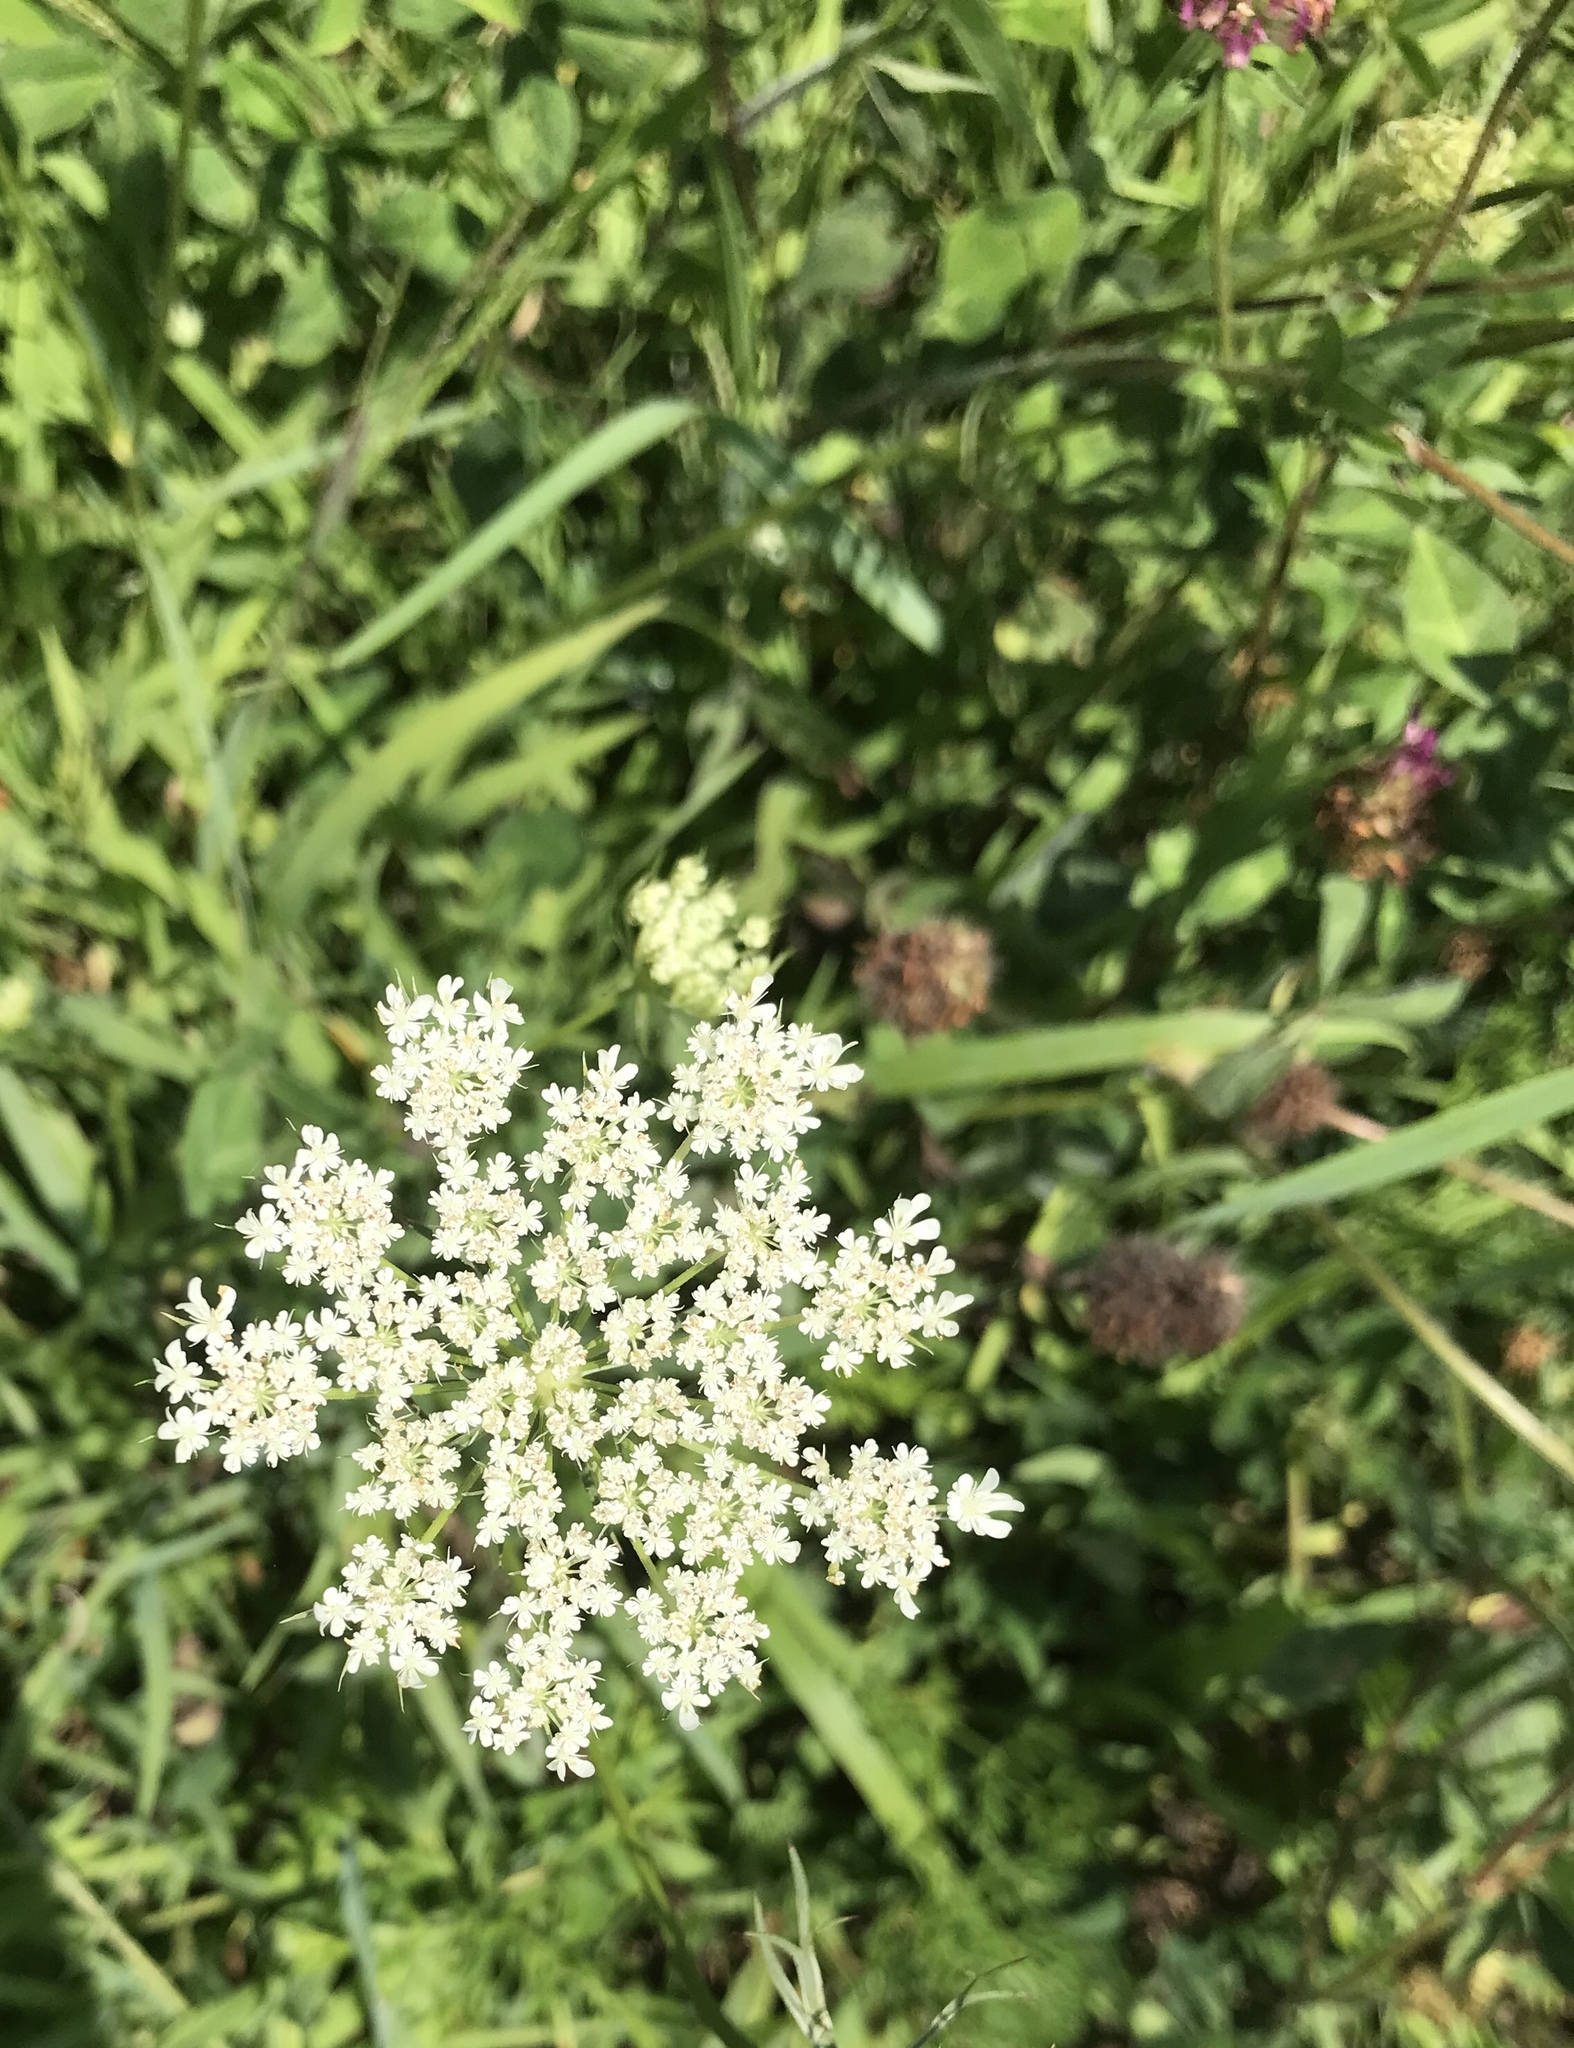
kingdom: Plantae
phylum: Tracheophyta
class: Magnoliopsida
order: Apiales
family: Apiaceae
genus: Daucus
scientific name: Daucus carota
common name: Wild carrot
